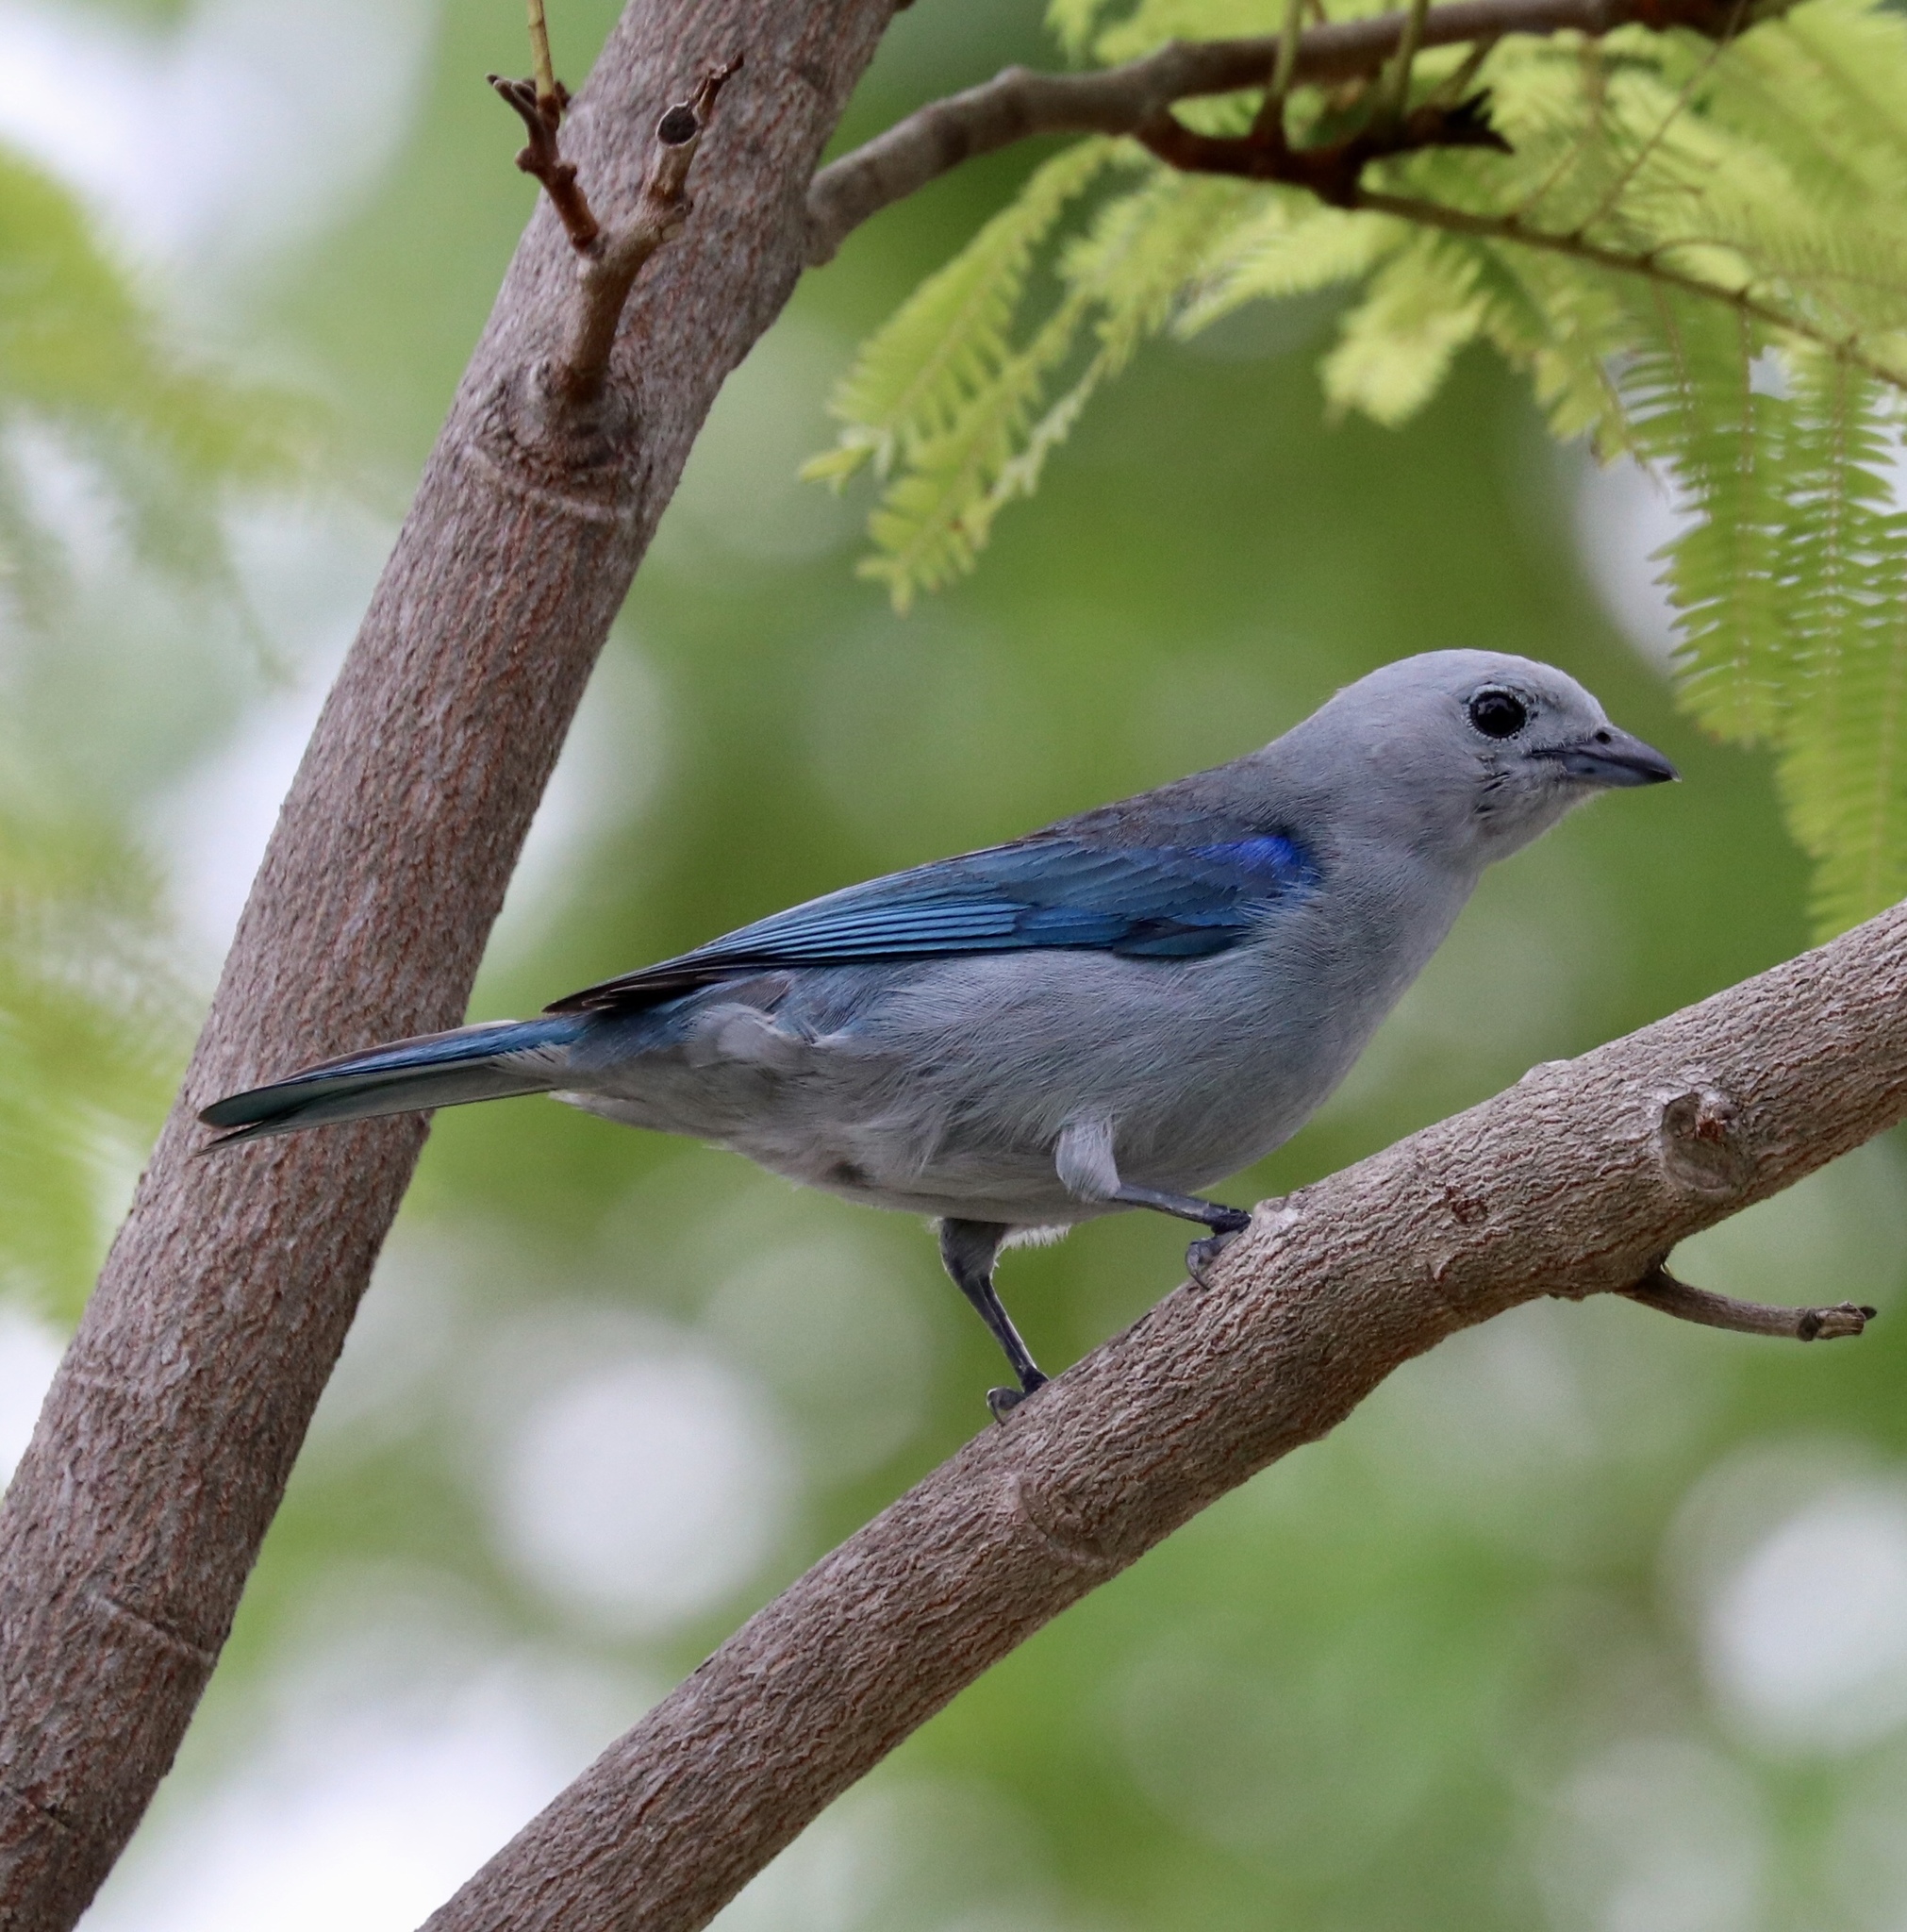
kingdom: Animalia
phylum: Chordata
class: Aves
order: Passeriformes
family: Thraupidae
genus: Thraupis
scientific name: Thraupis episcopus
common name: Blue-grey tanager
